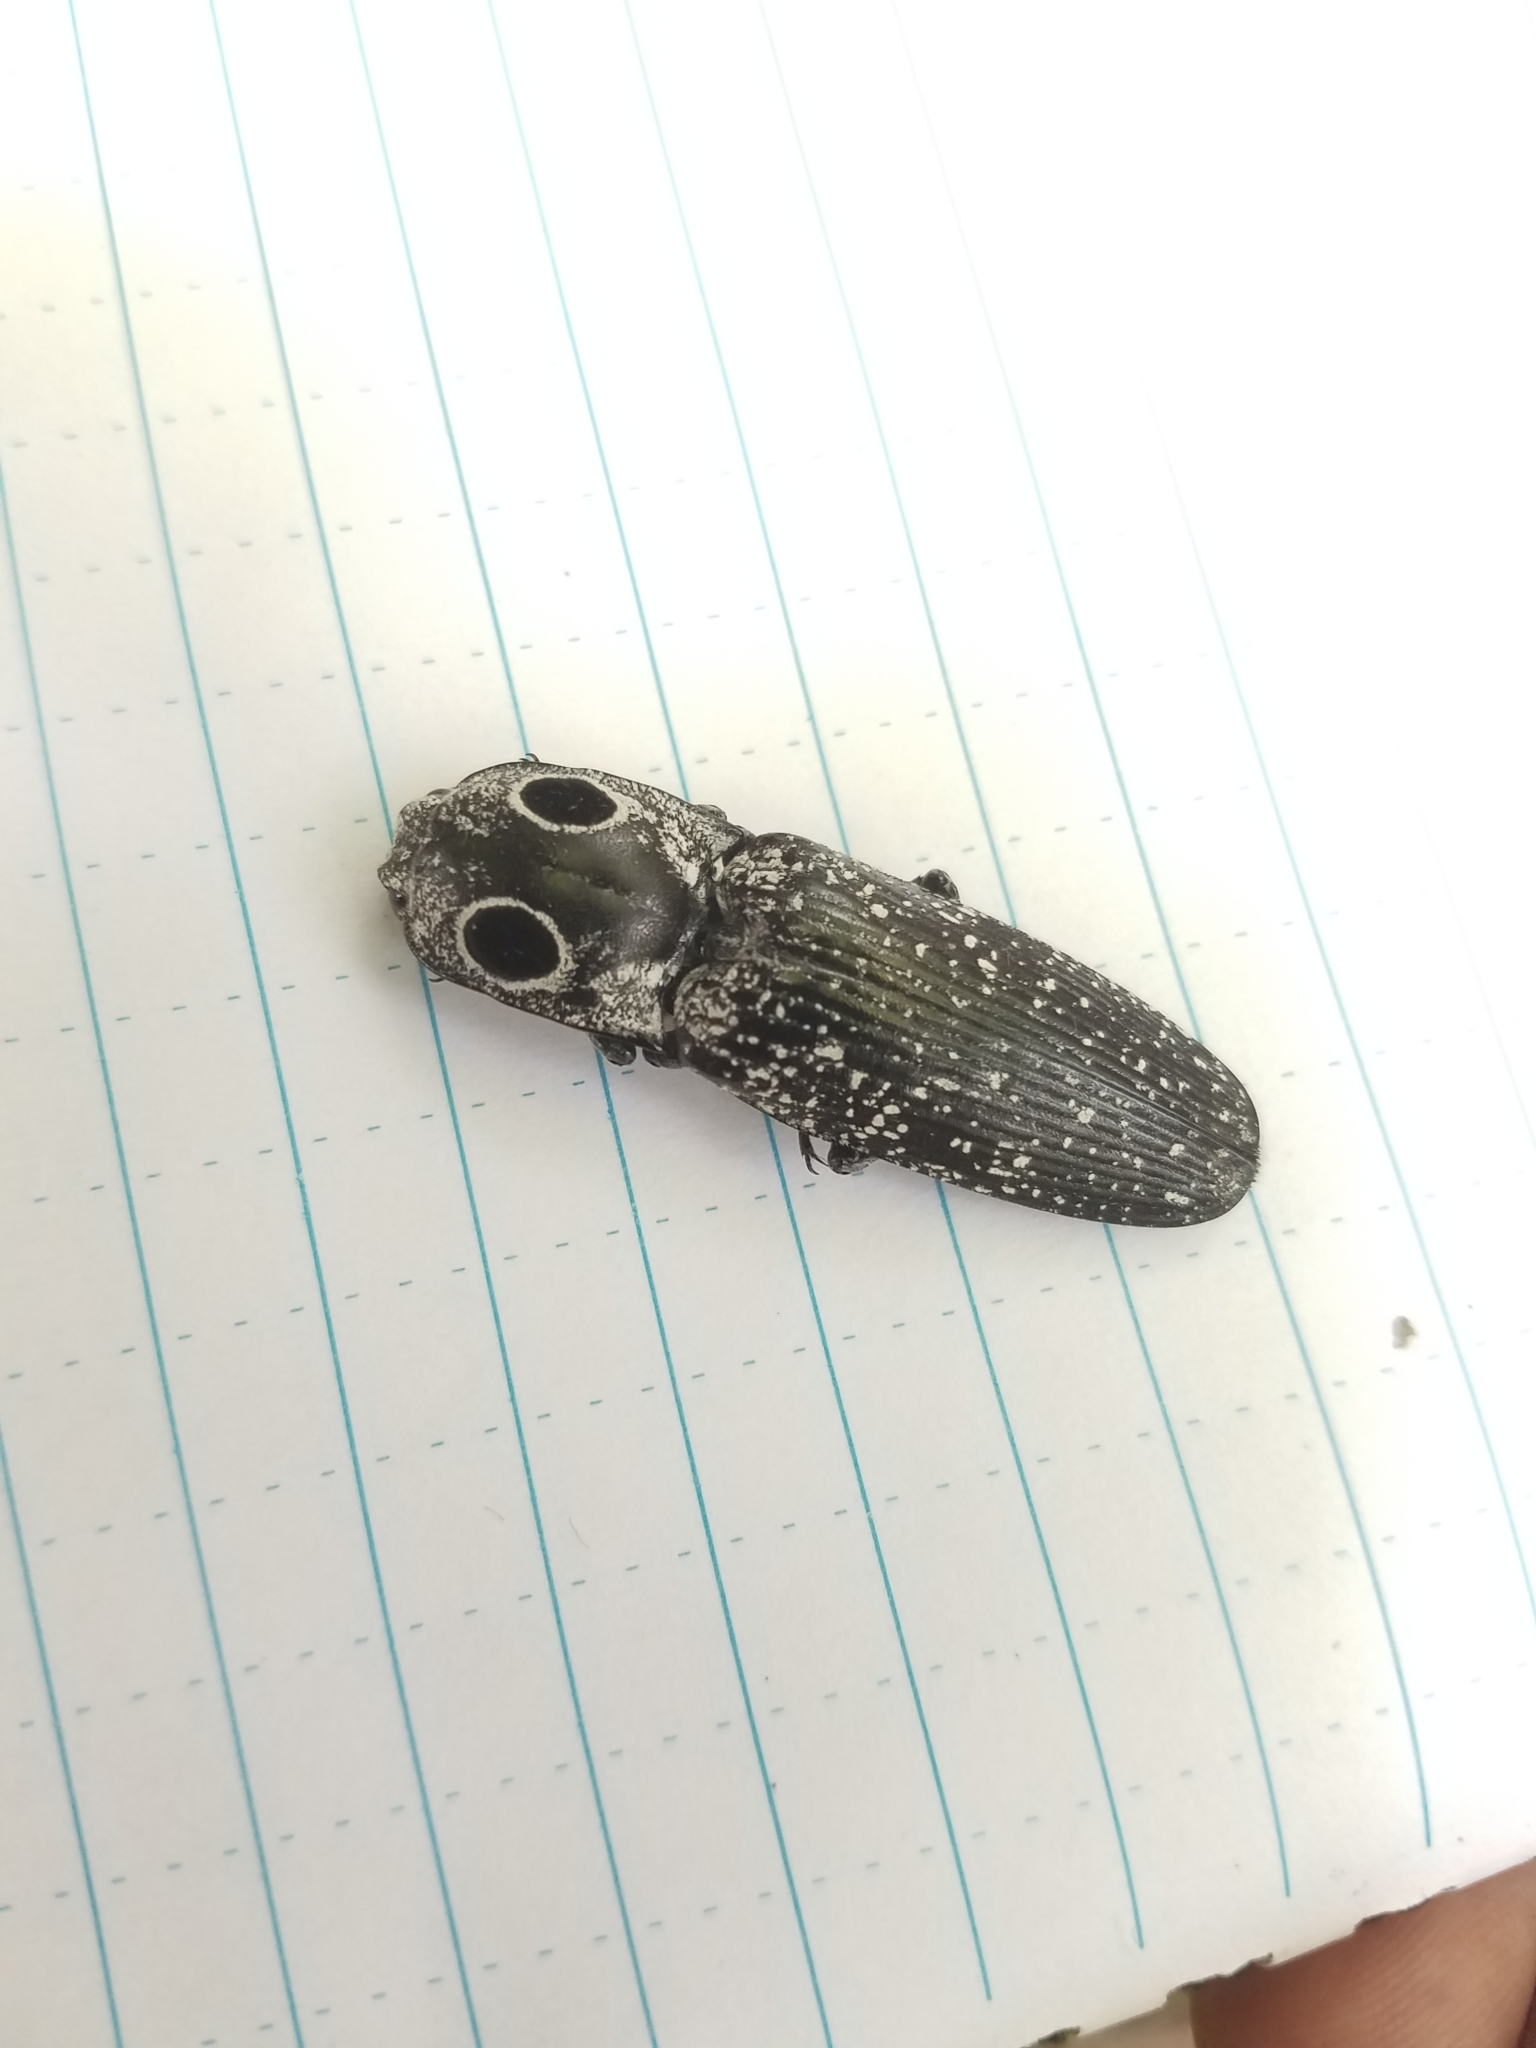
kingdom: Animalia
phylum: Arthropoda
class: Insecta
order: Coleoptera
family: Elateridae
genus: Alaus
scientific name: Alaus oculatus
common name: Eastern eyed click beetle
